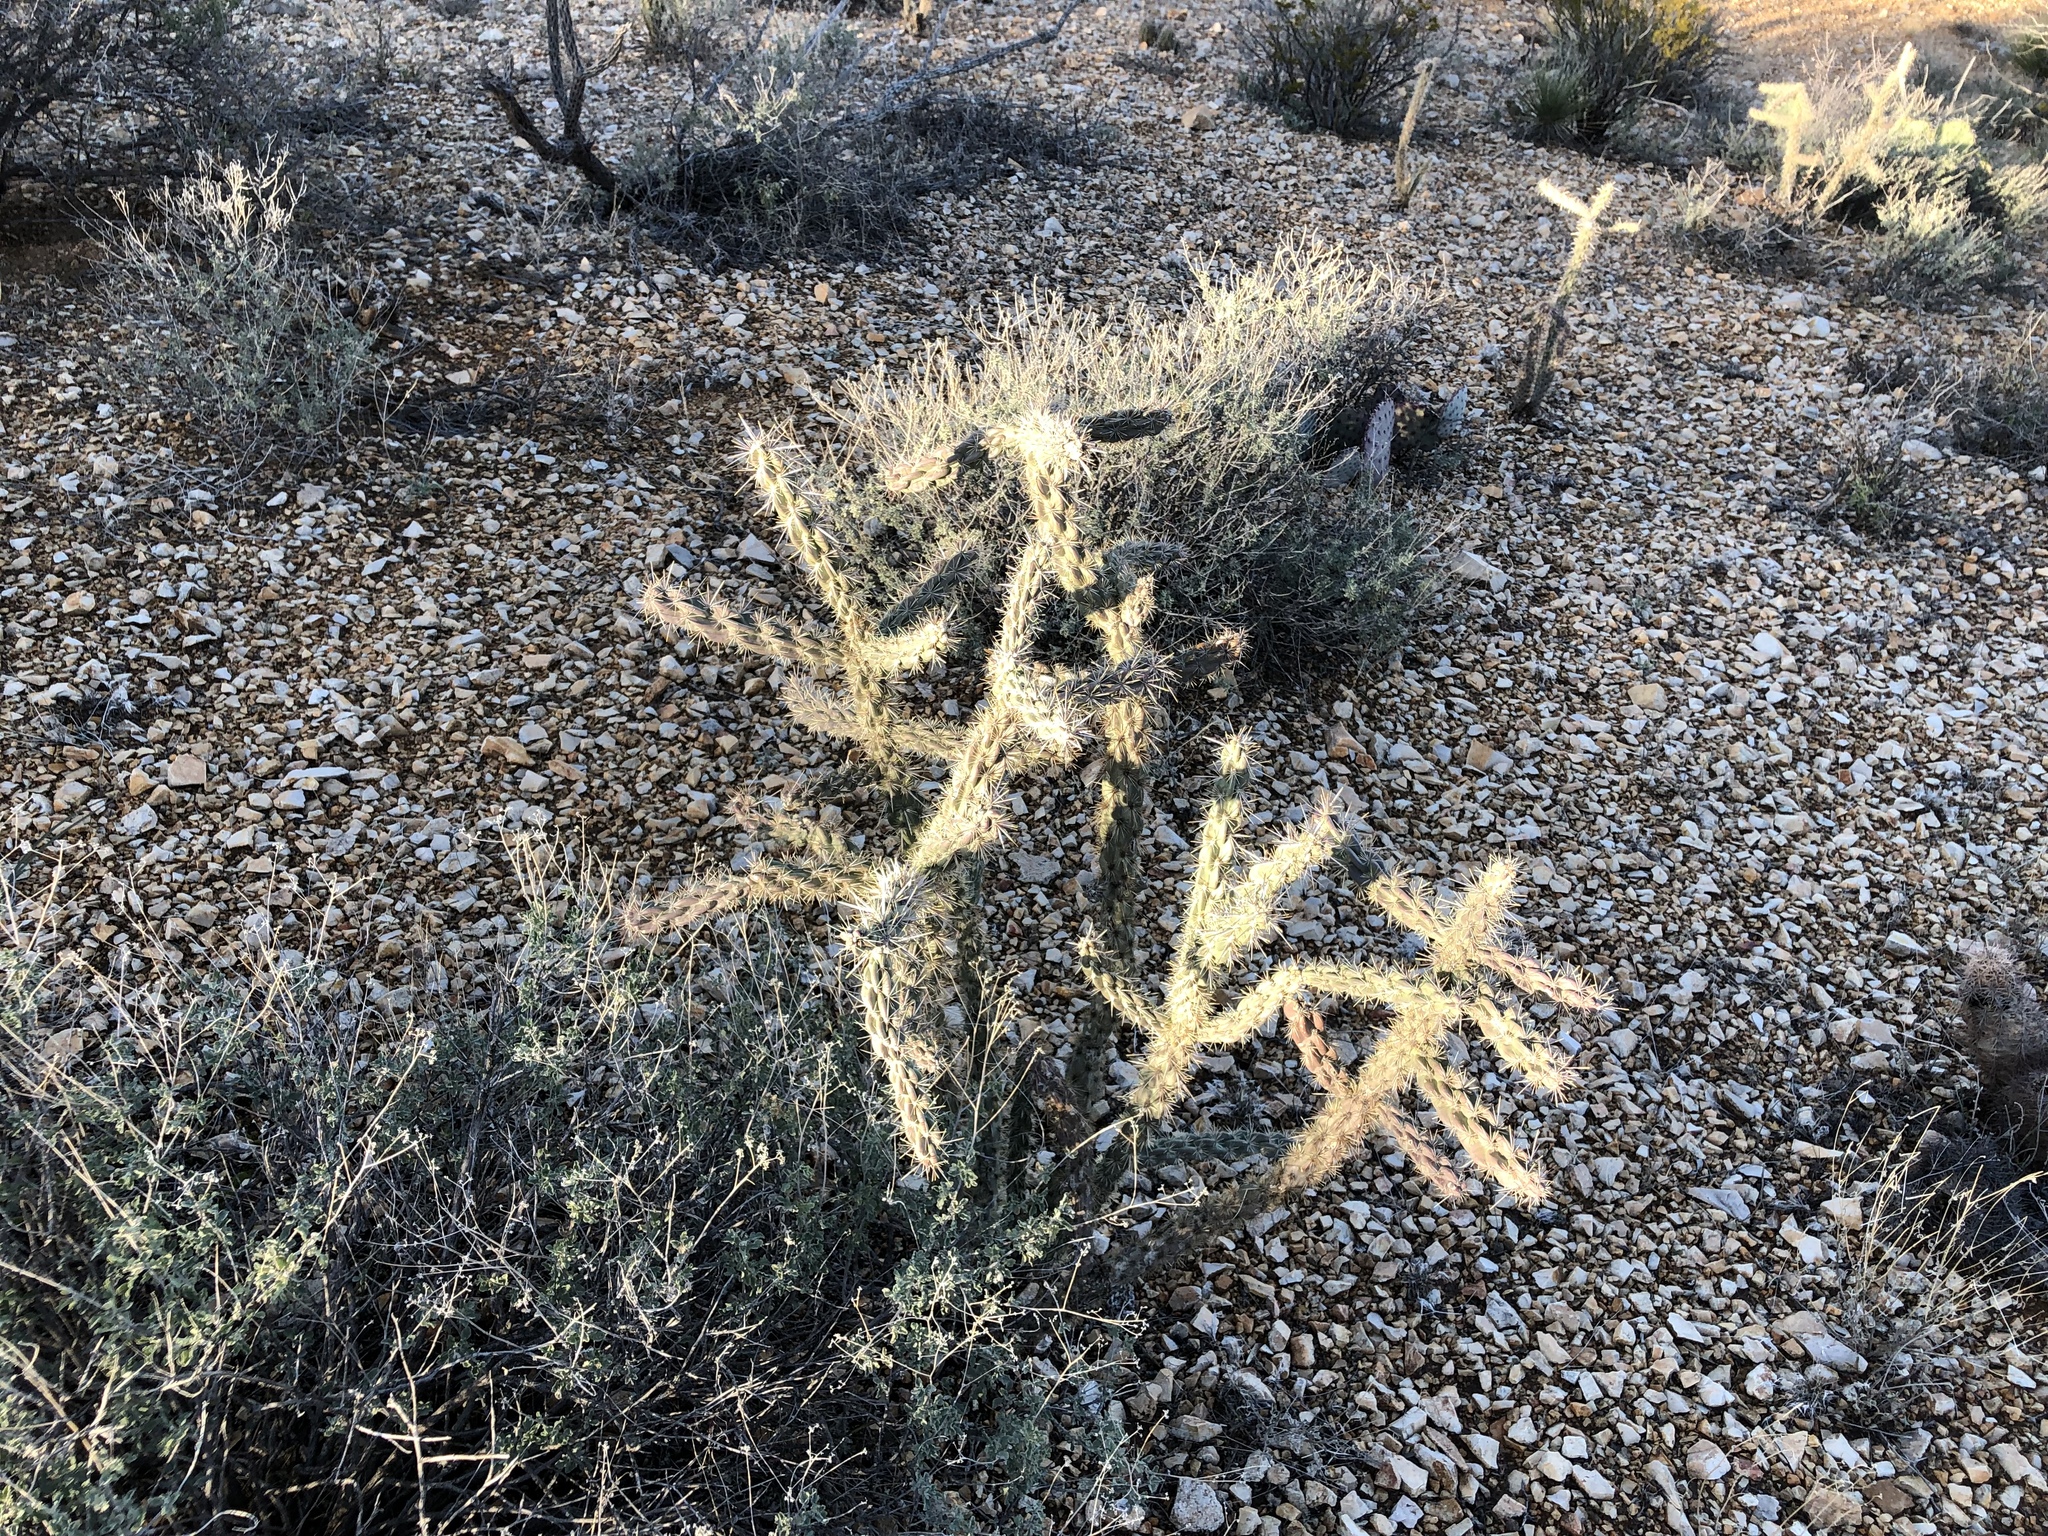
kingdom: Plantae
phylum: Tracheophyta
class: Magnoliopsida
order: Caryophyllales
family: Cactaceae
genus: Cylindropuntia
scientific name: Cylindropuntia imbricata
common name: Candelabrum cactus
